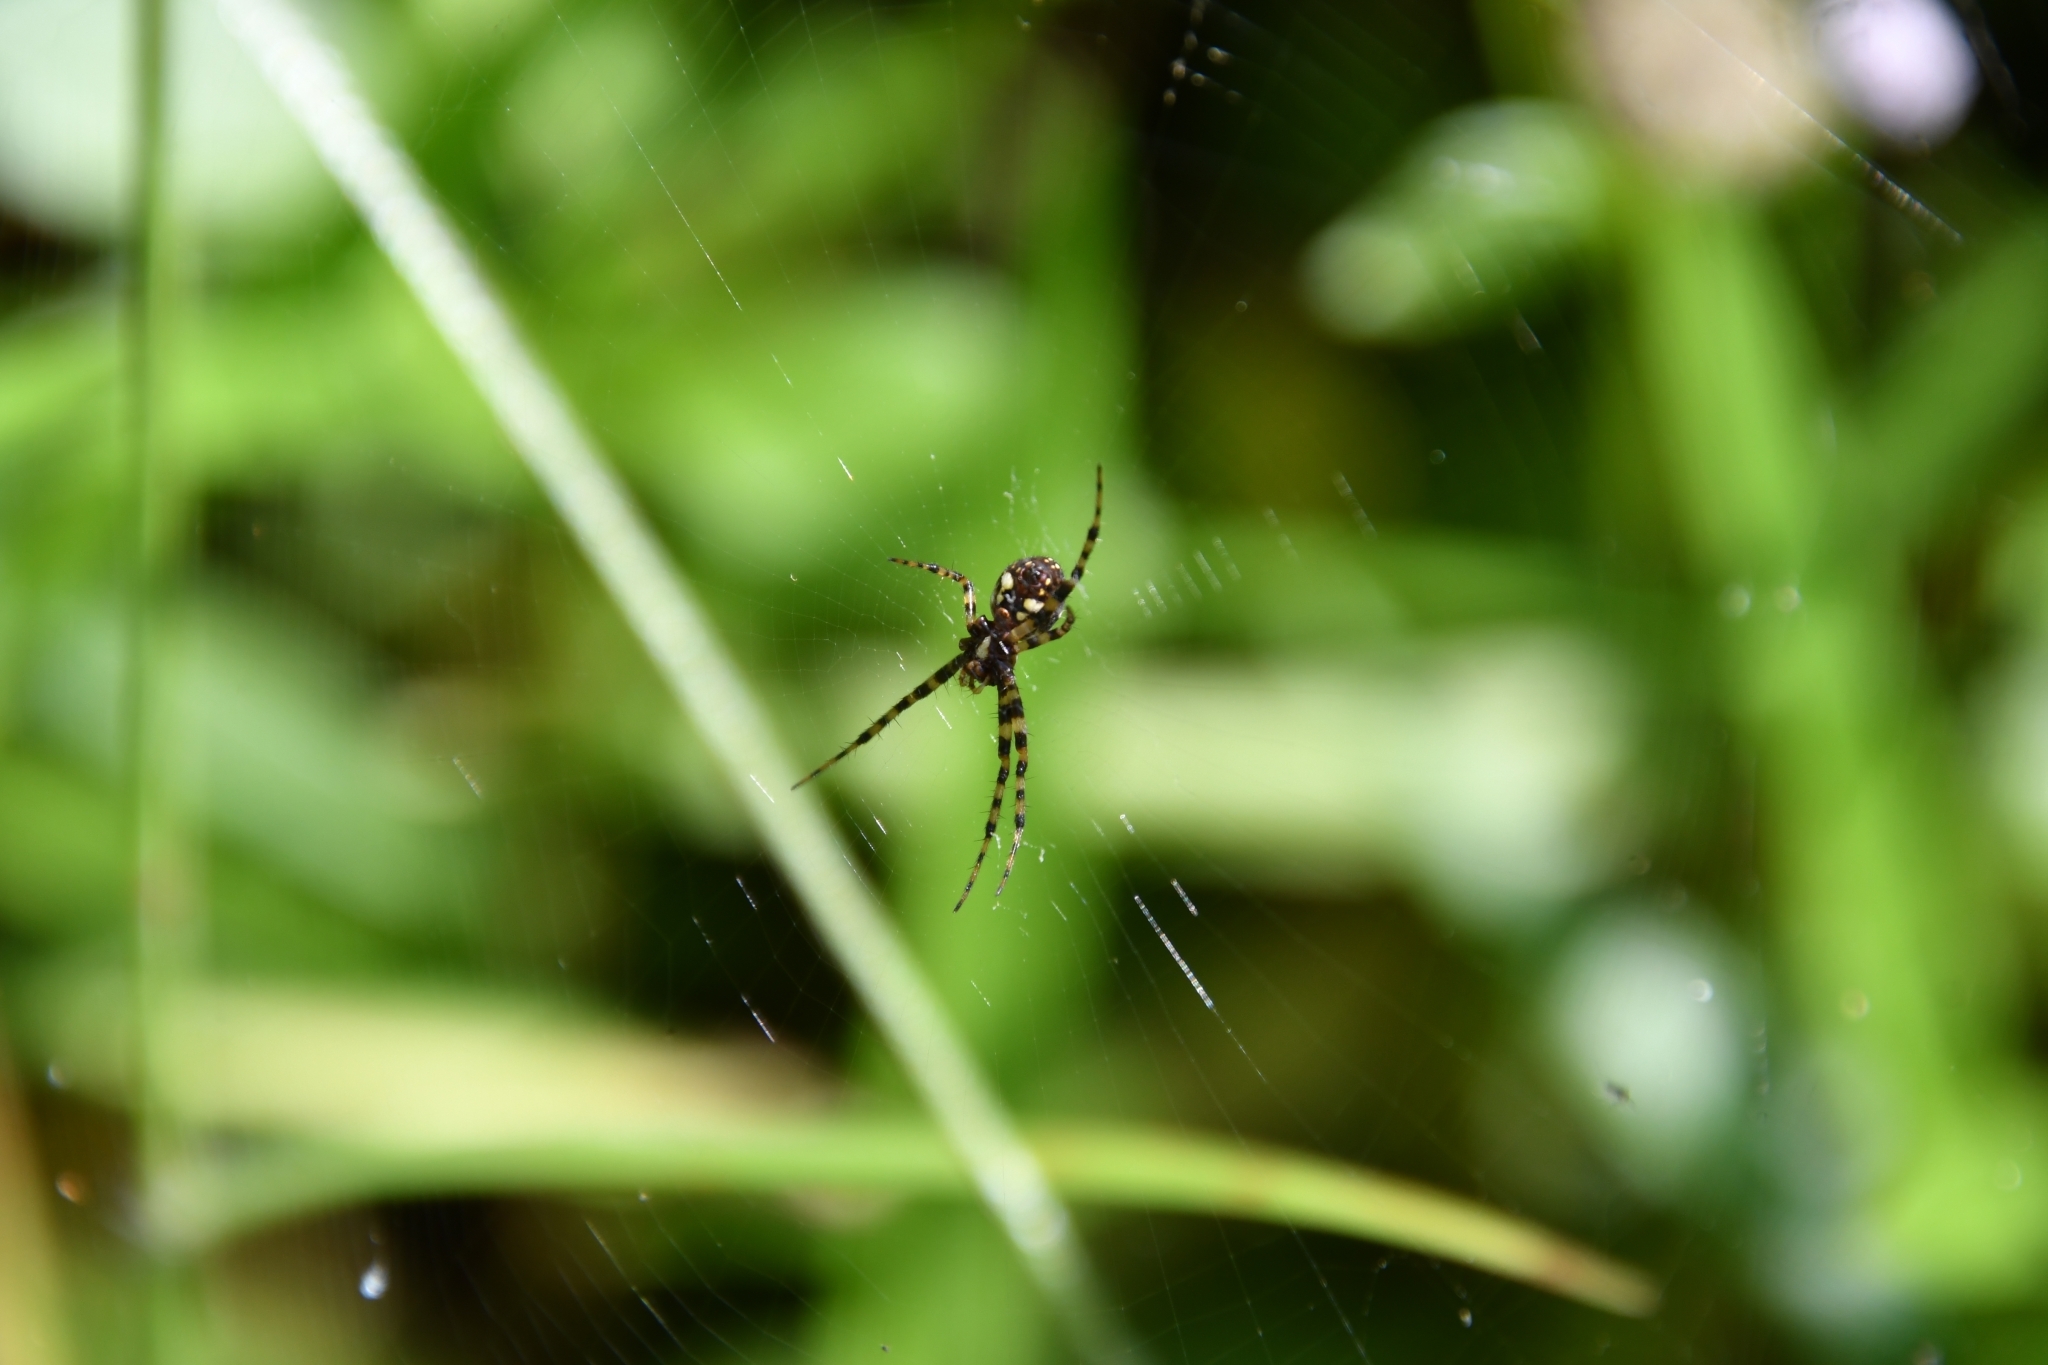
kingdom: Animalia
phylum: Arthropoda
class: Arachnida
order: Araneae
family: Araneidae
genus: Gea
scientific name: Gea spinipes
